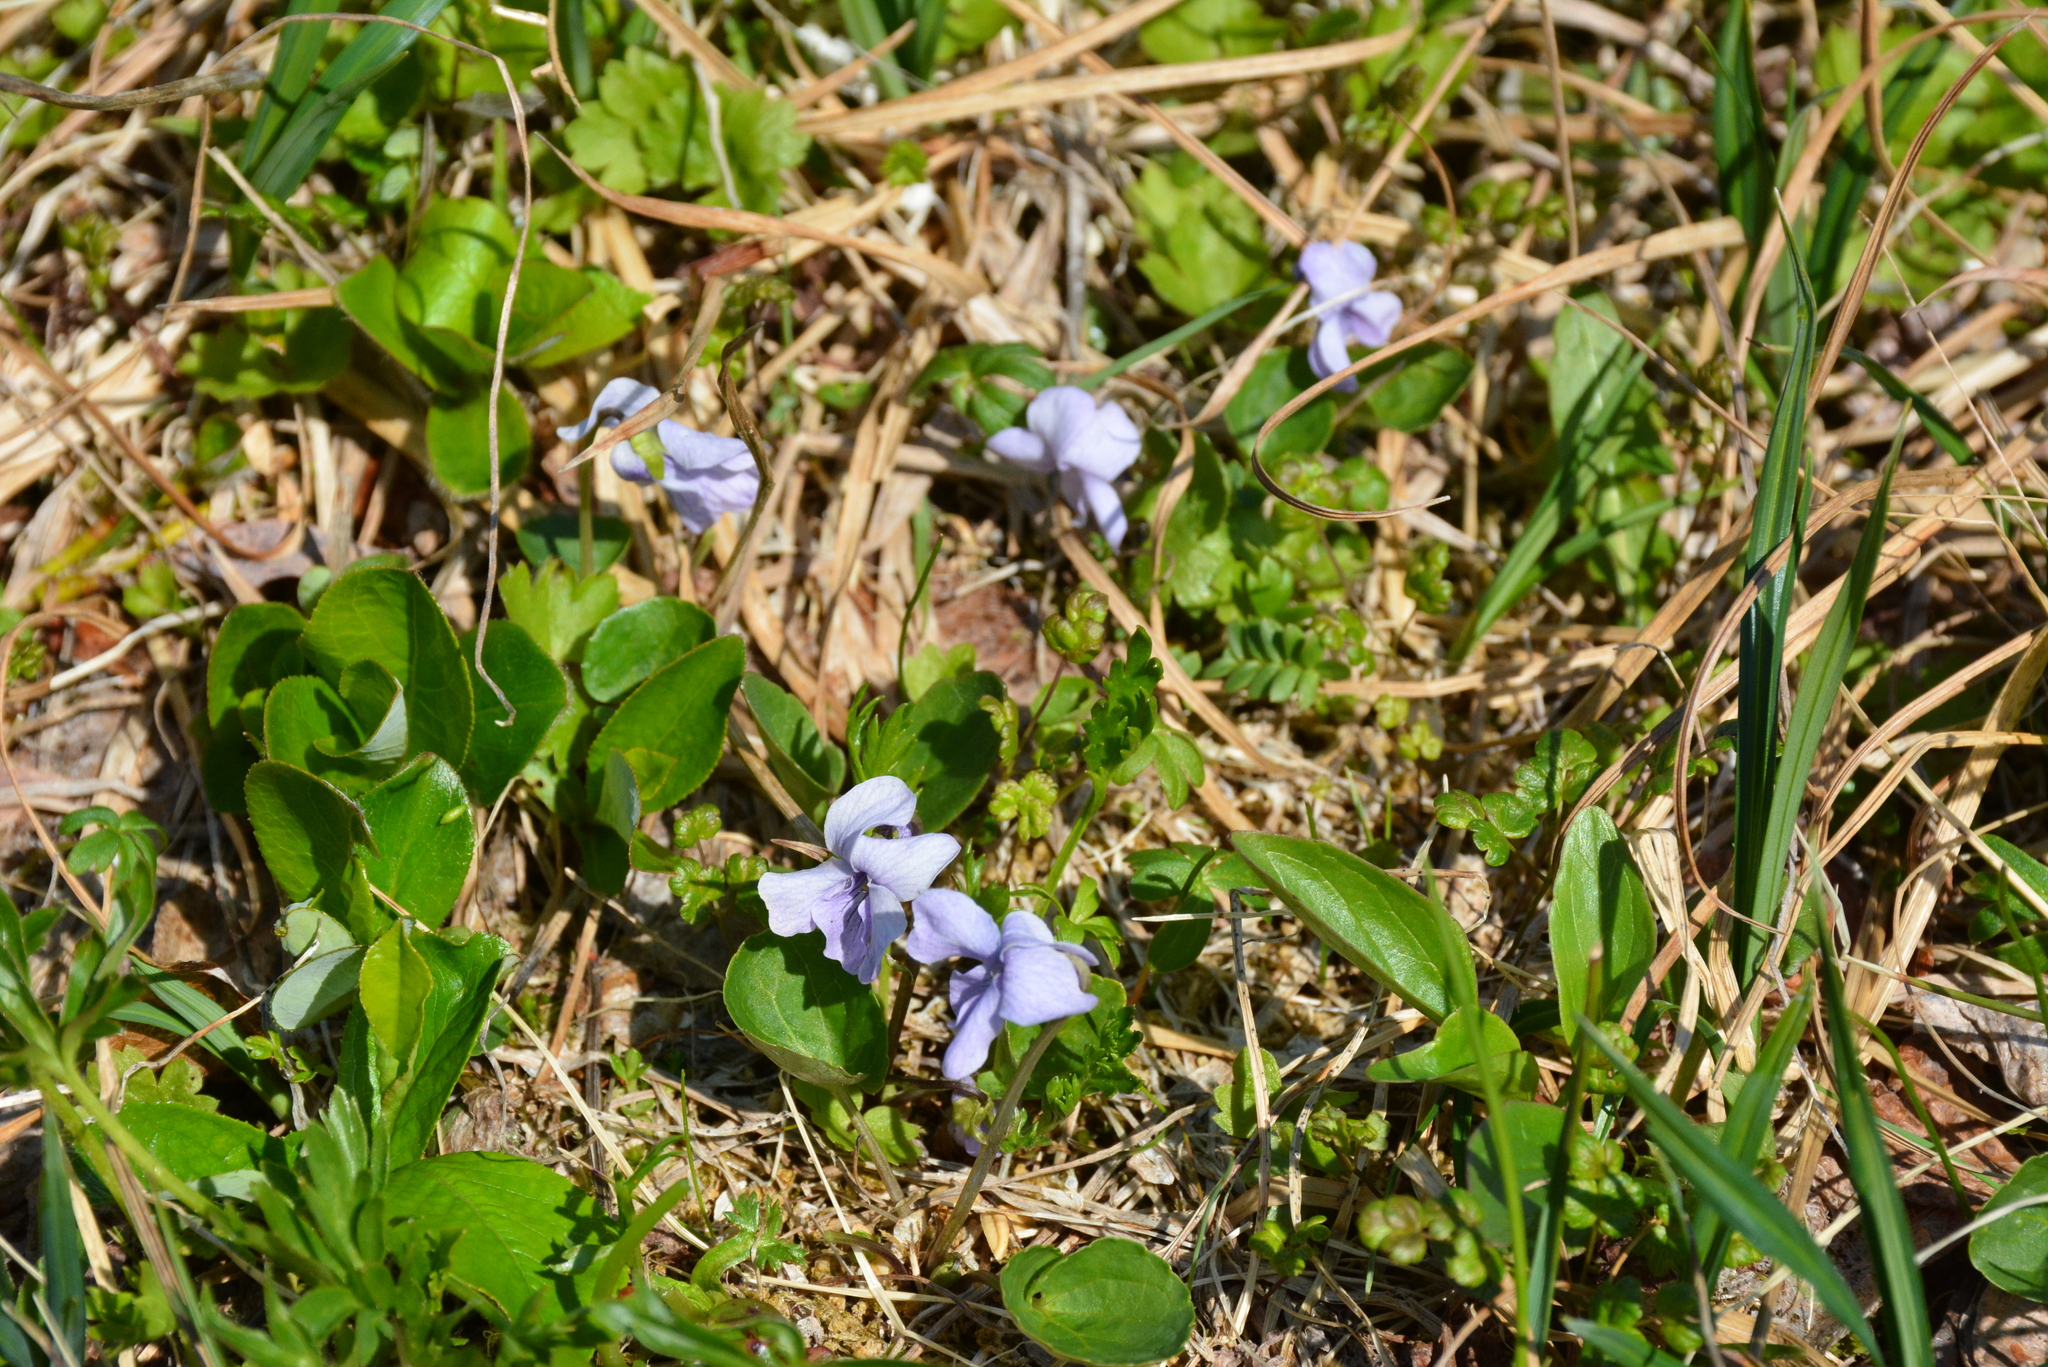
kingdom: Plantae
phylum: Tracheophyta
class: Magnoliopsida
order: Malpighiales
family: Violaceae
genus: Viola
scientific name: Viola epipsila
